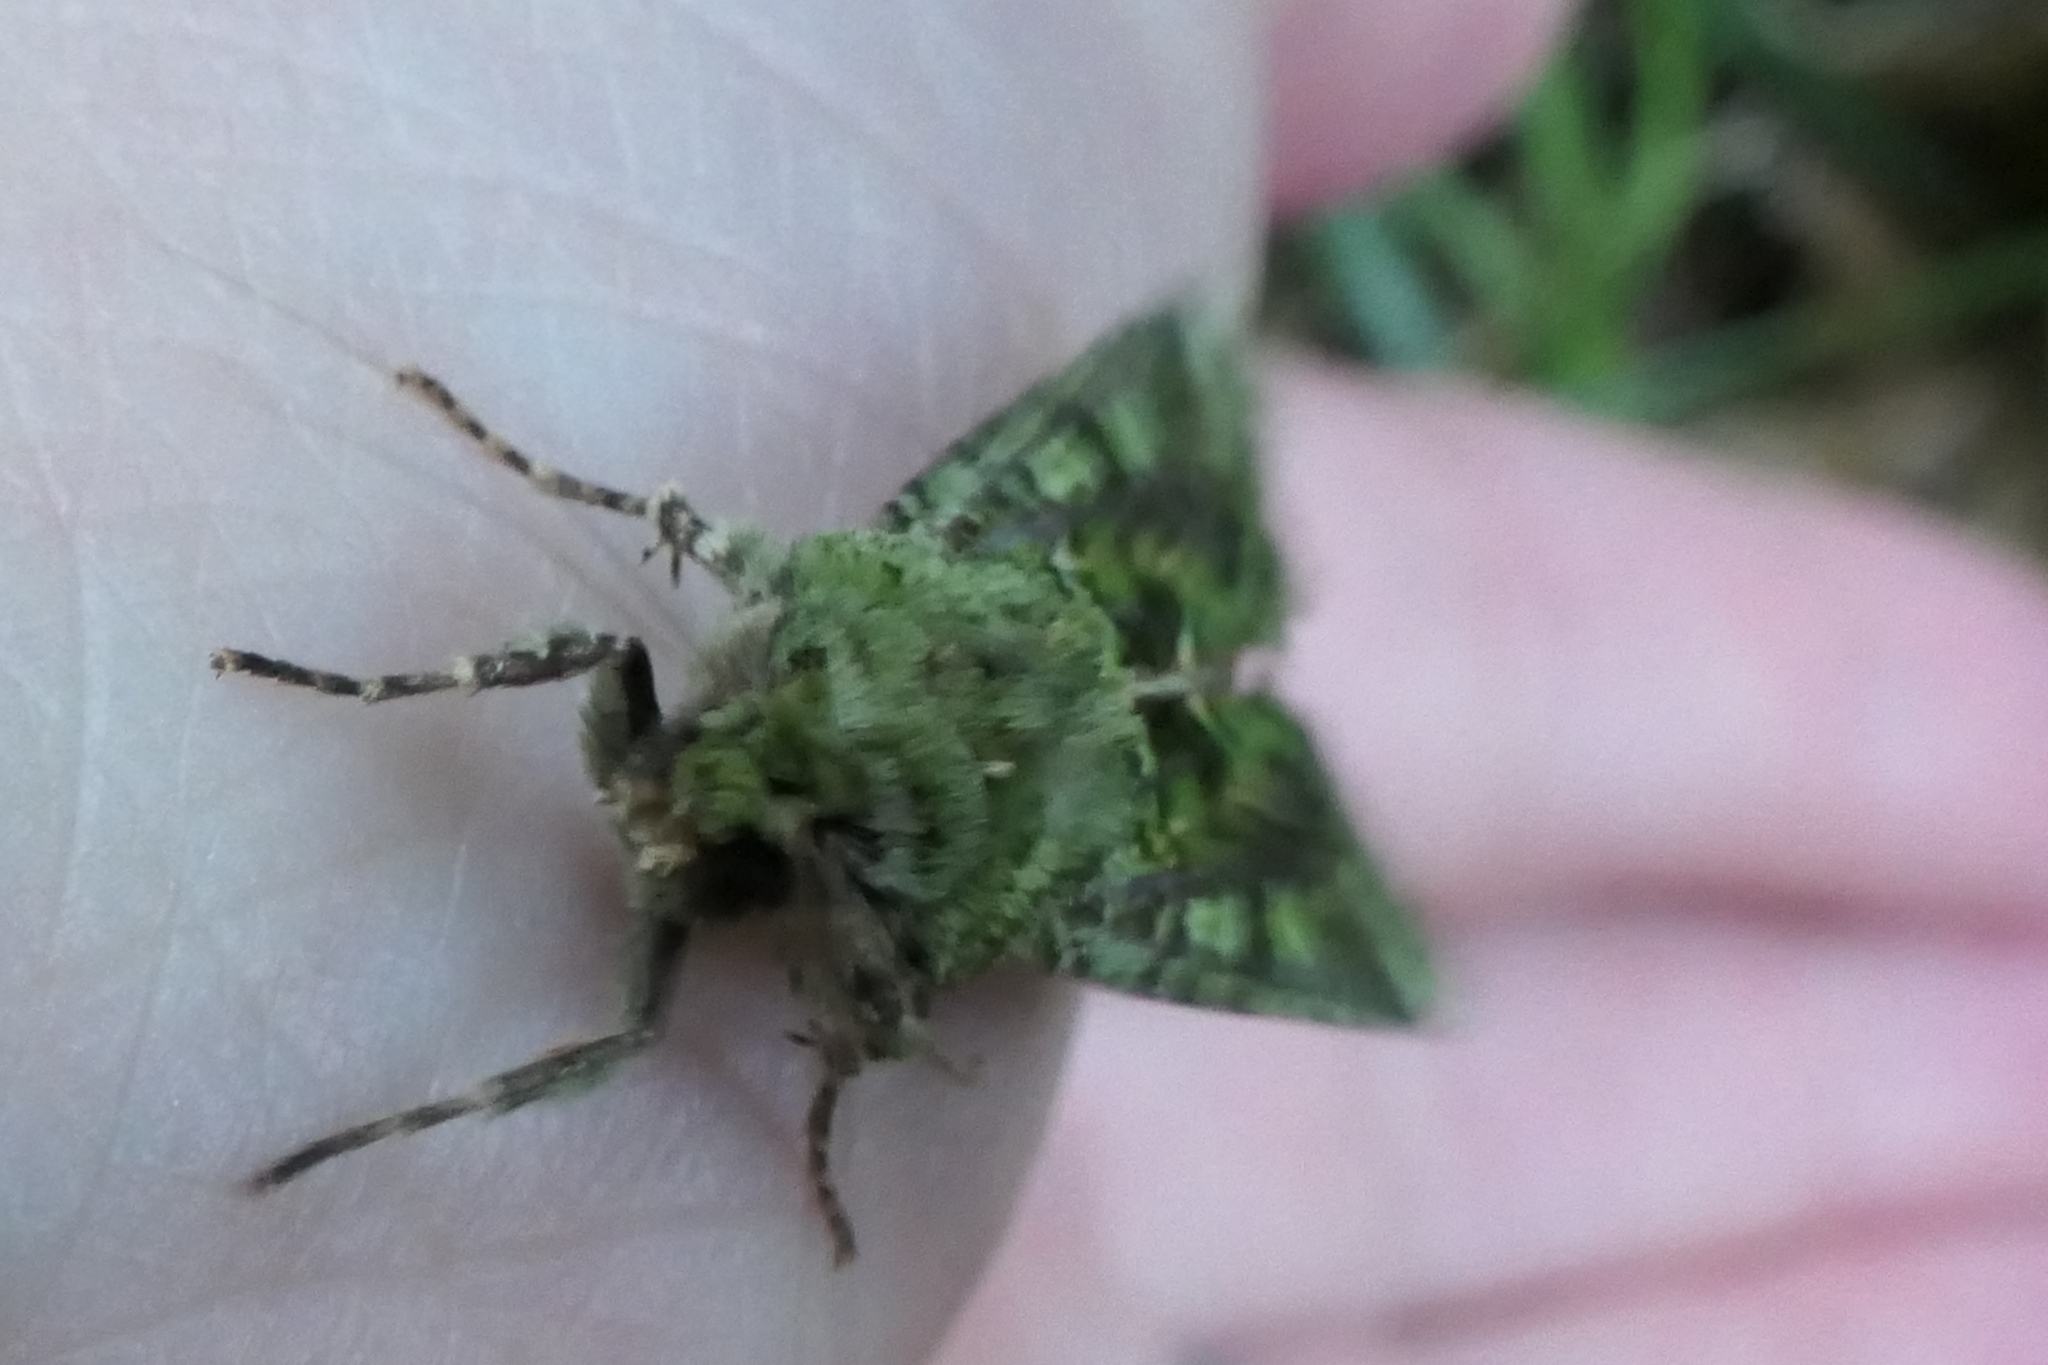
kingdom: Animalia
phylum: Arthropoda
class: Insecta
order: Lepidoptera
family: Noctuidae
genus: Feredayia
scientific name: Feredayia grammosa
